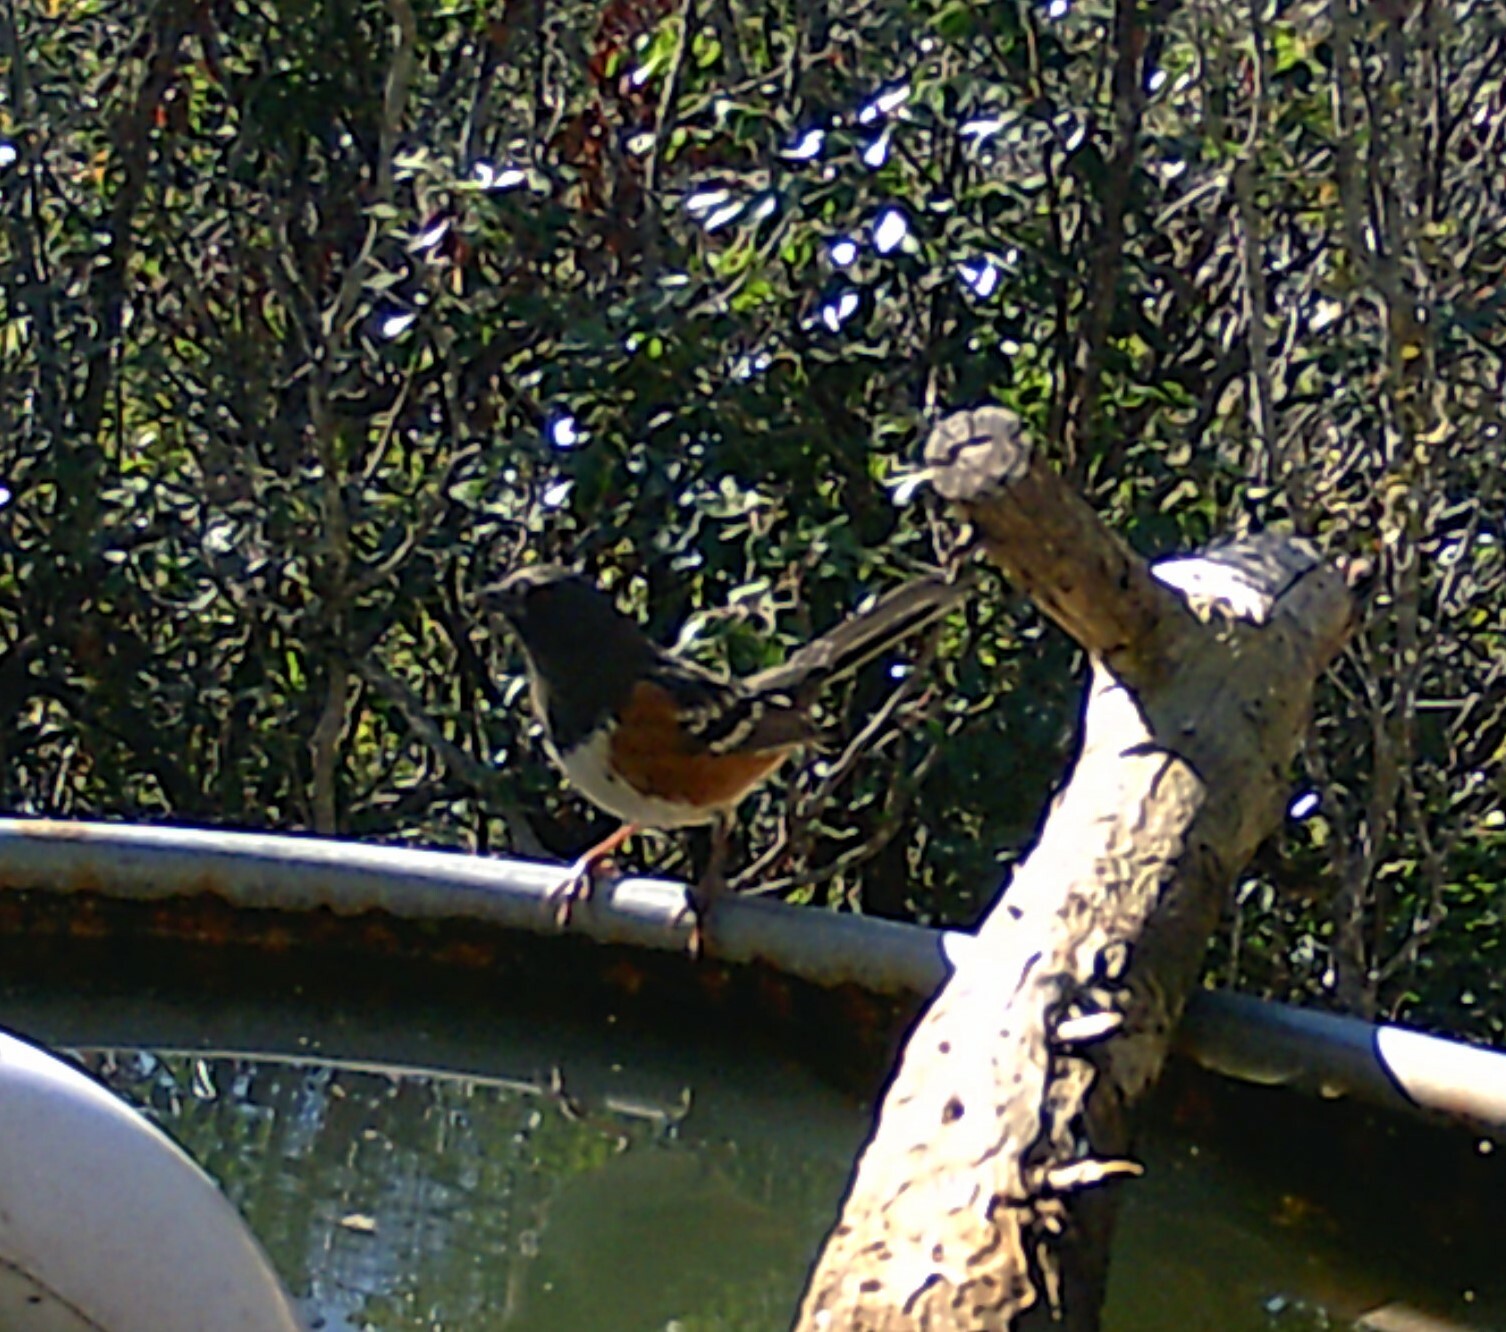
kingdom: Animalia
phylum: Chordata
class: Aves
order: Passeriformes
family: Passerellidae
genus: Pipilo
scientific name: Pipilo maculatus
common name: Spotted towhee
